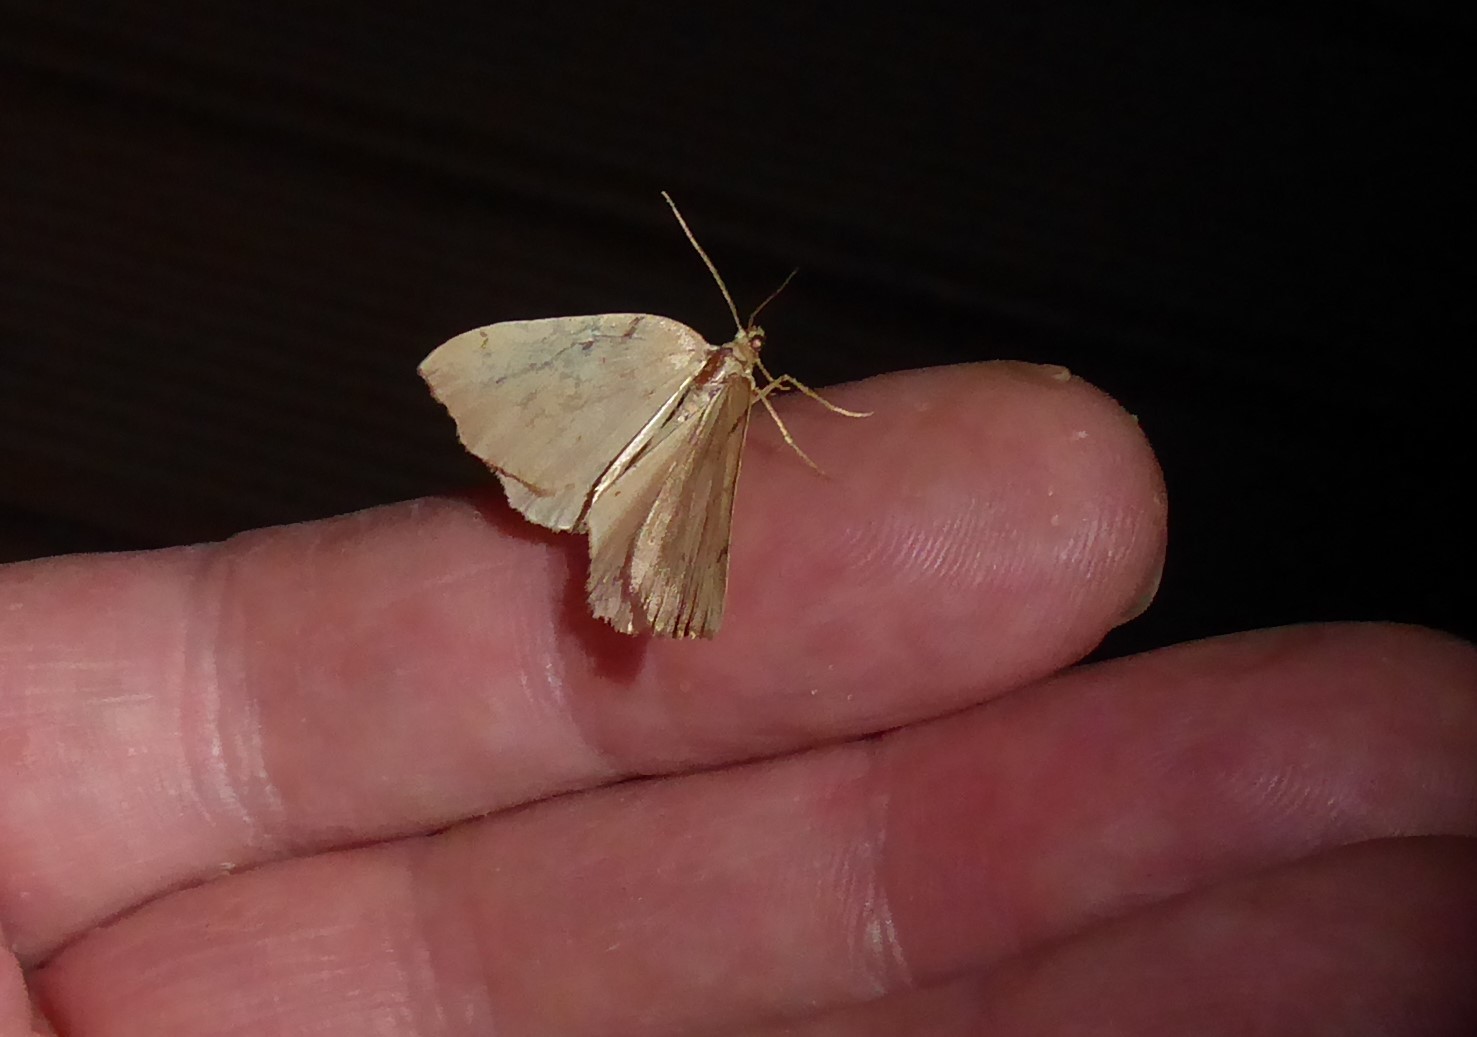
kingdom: Animalia
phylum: Arthropoda
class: Insecta
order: Lepidoptera
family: Geometridae
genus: Sestra
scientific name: Sestra humeraria
